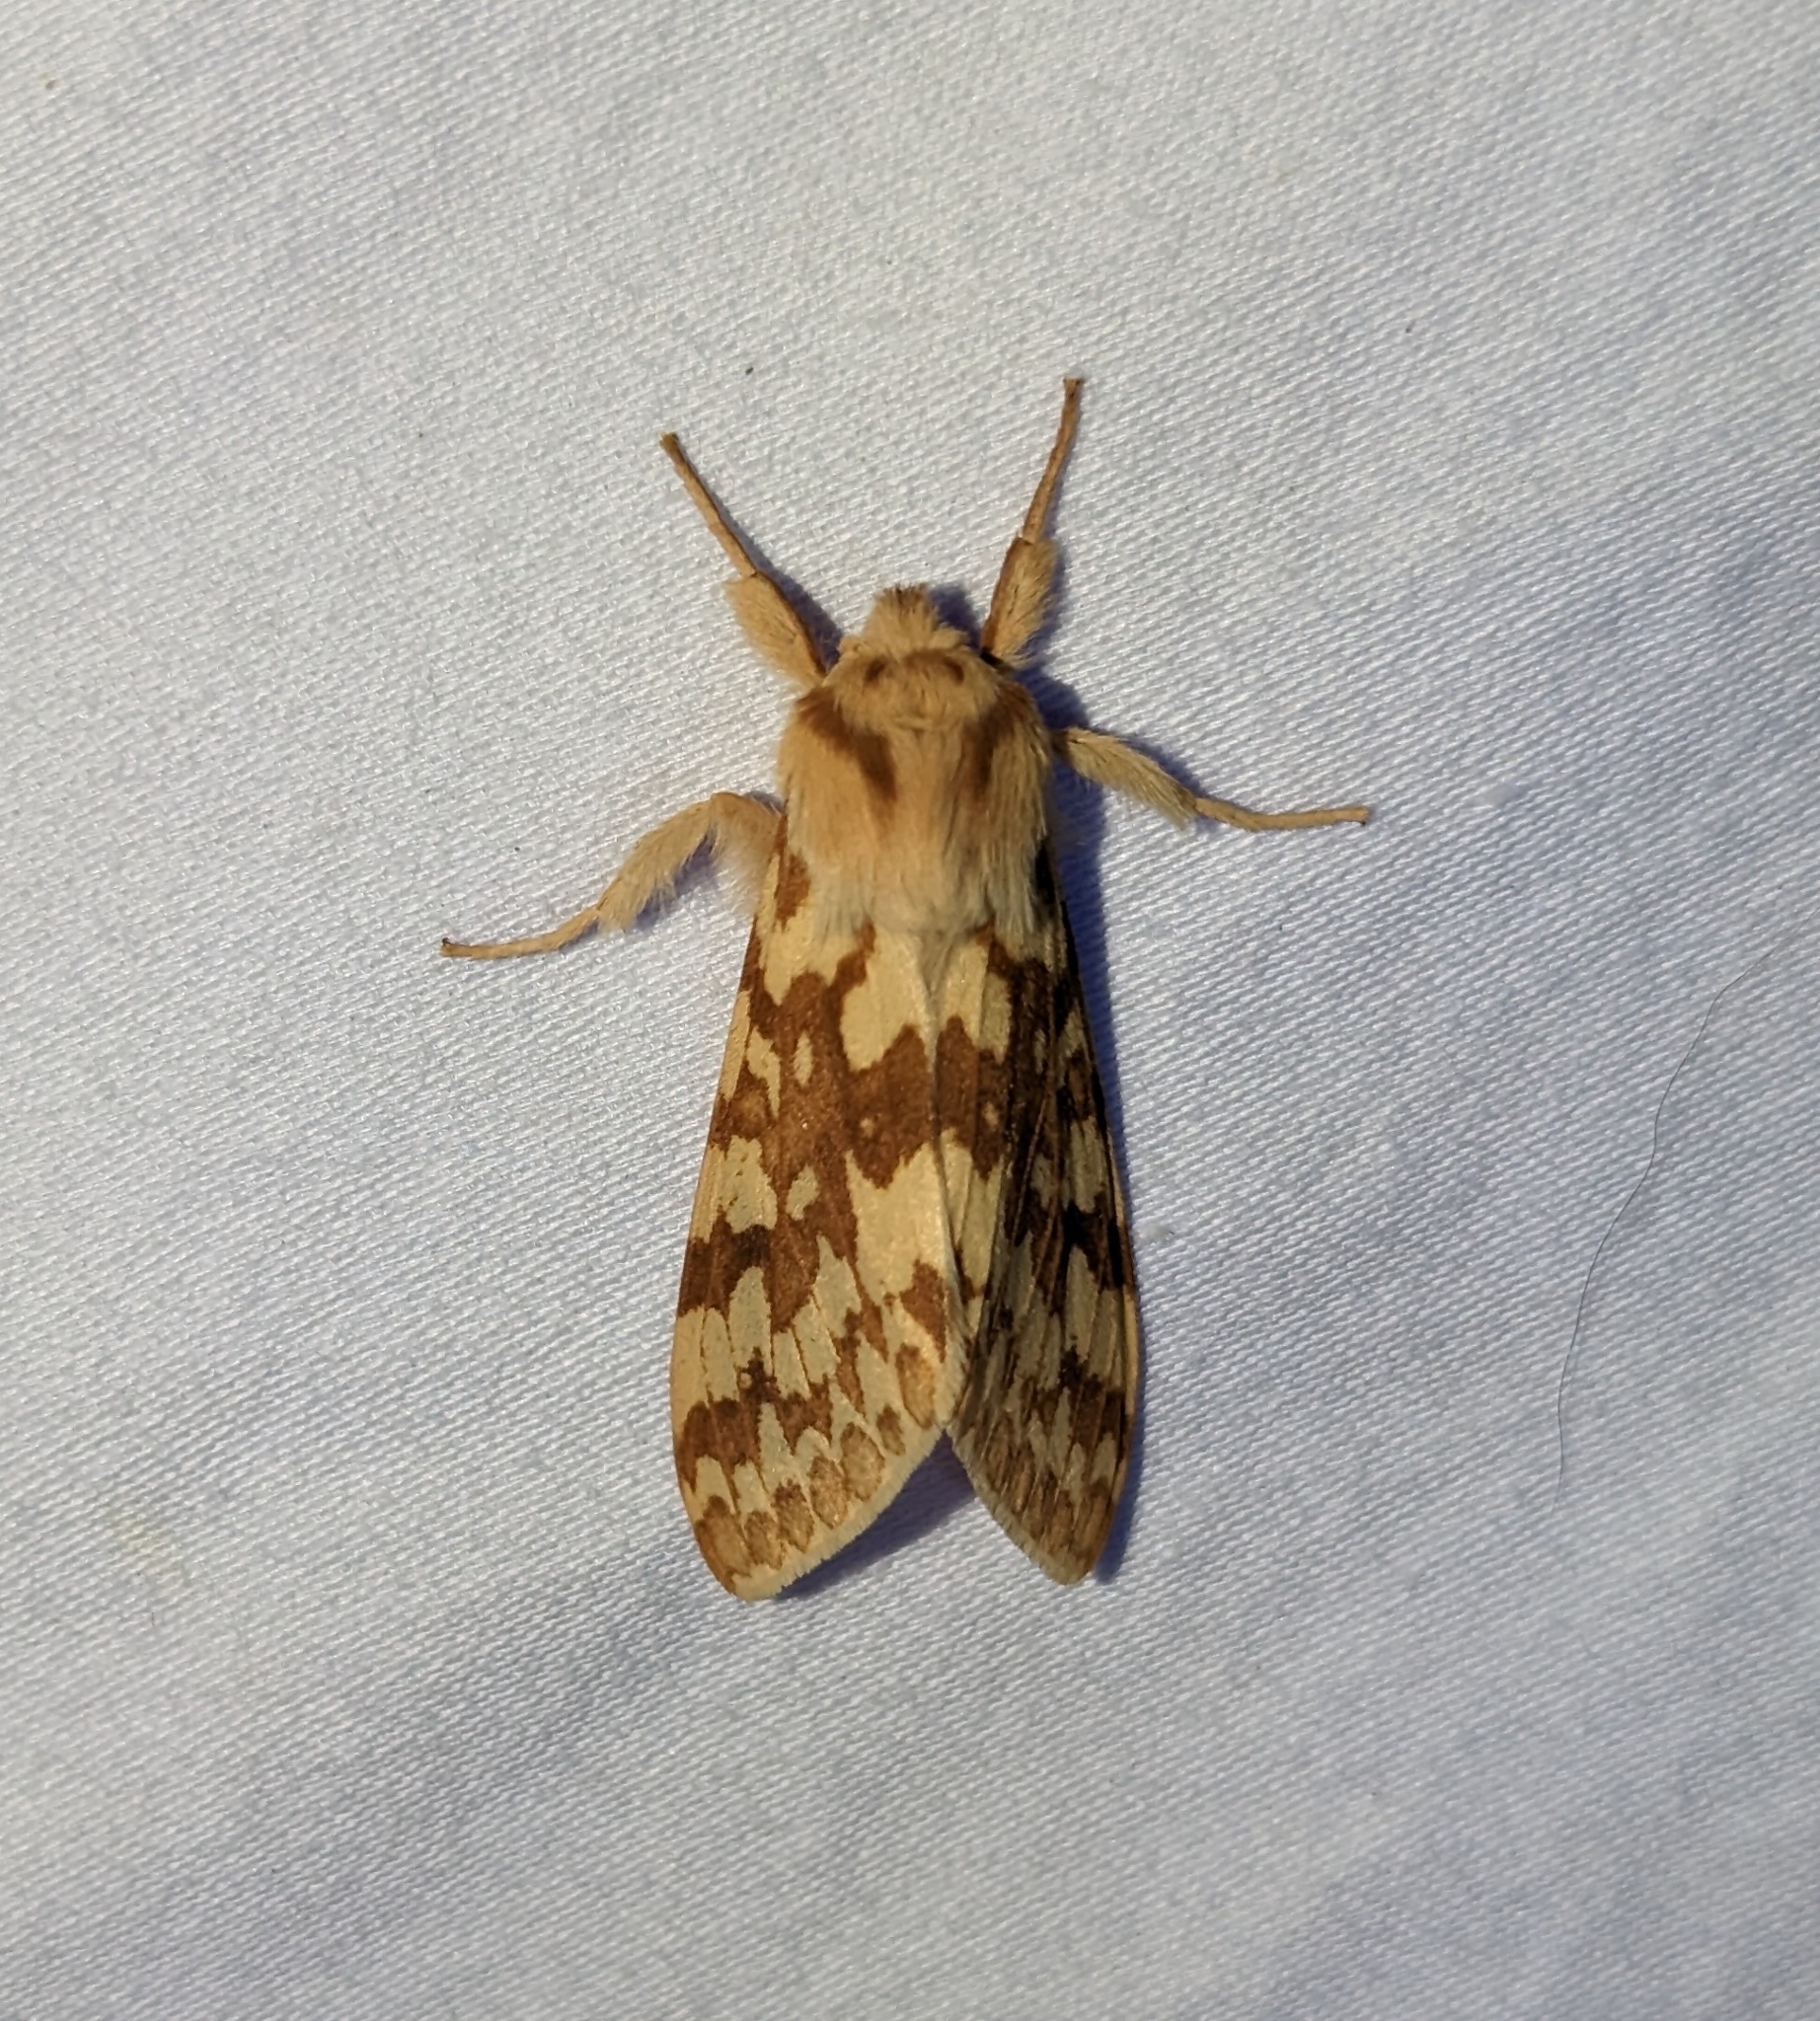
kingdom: Animalia
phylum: Arthropoda
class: Insecta
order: Lepidoptera
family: Erebidae
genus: Lophocampa
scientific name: Lophocampa maculata
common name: Spotted tussock moth
